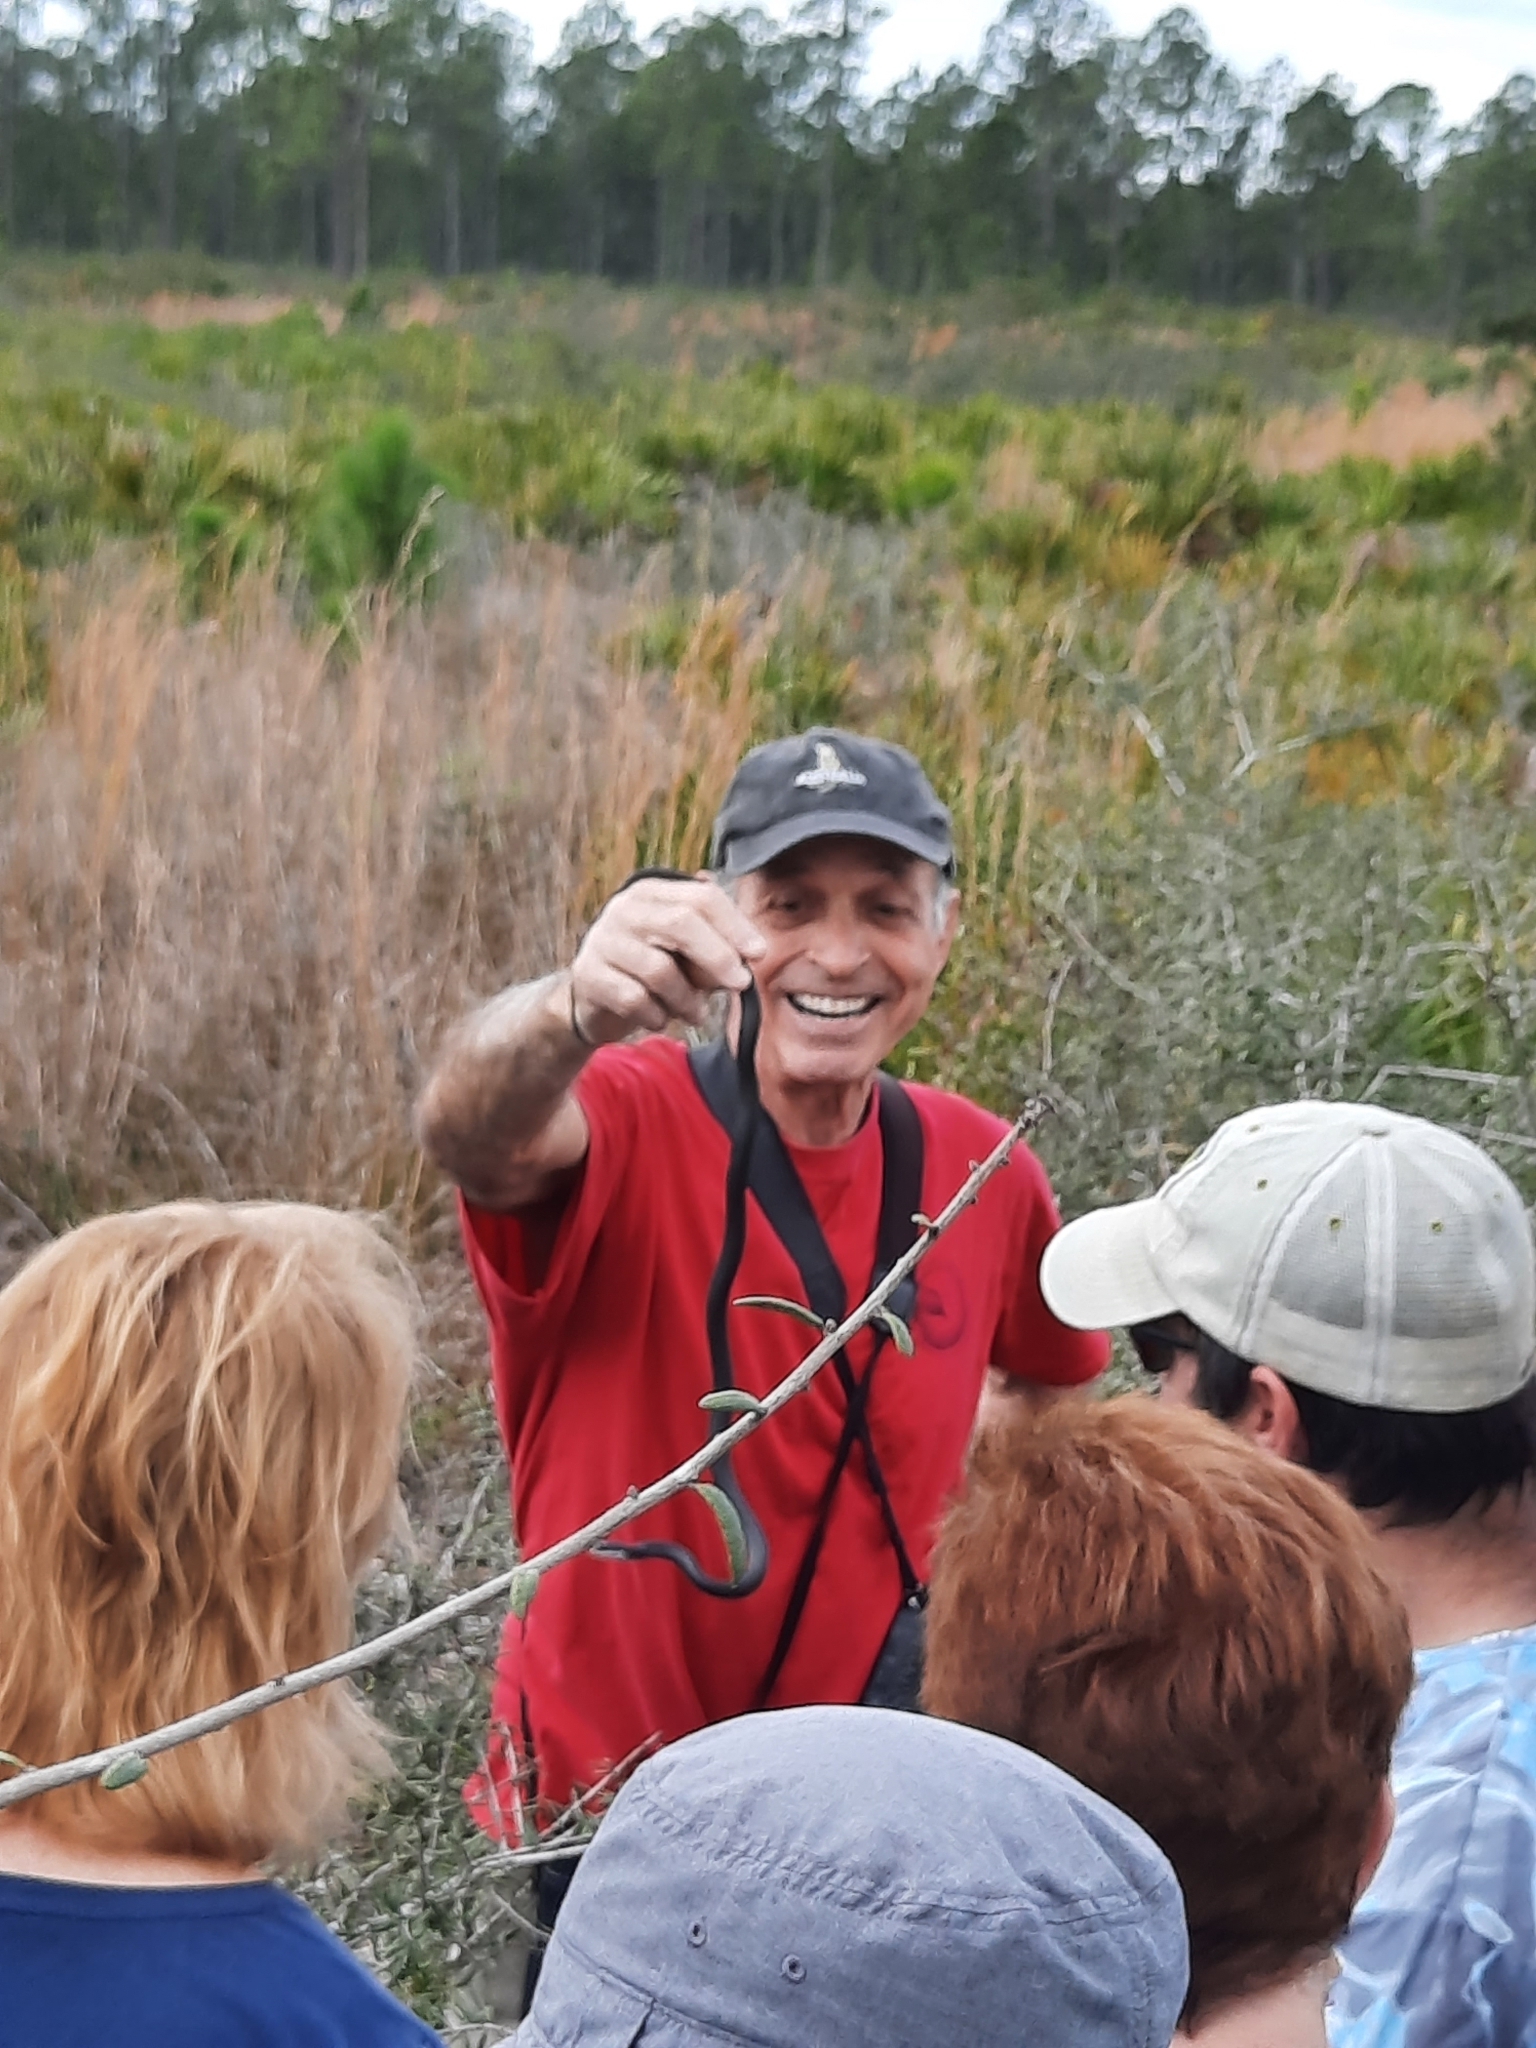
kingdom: Animalia
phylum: Chordata
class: Squamata
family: Colubridae
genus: Coluber
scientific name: Coluber constrictor
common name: Eastern racer
